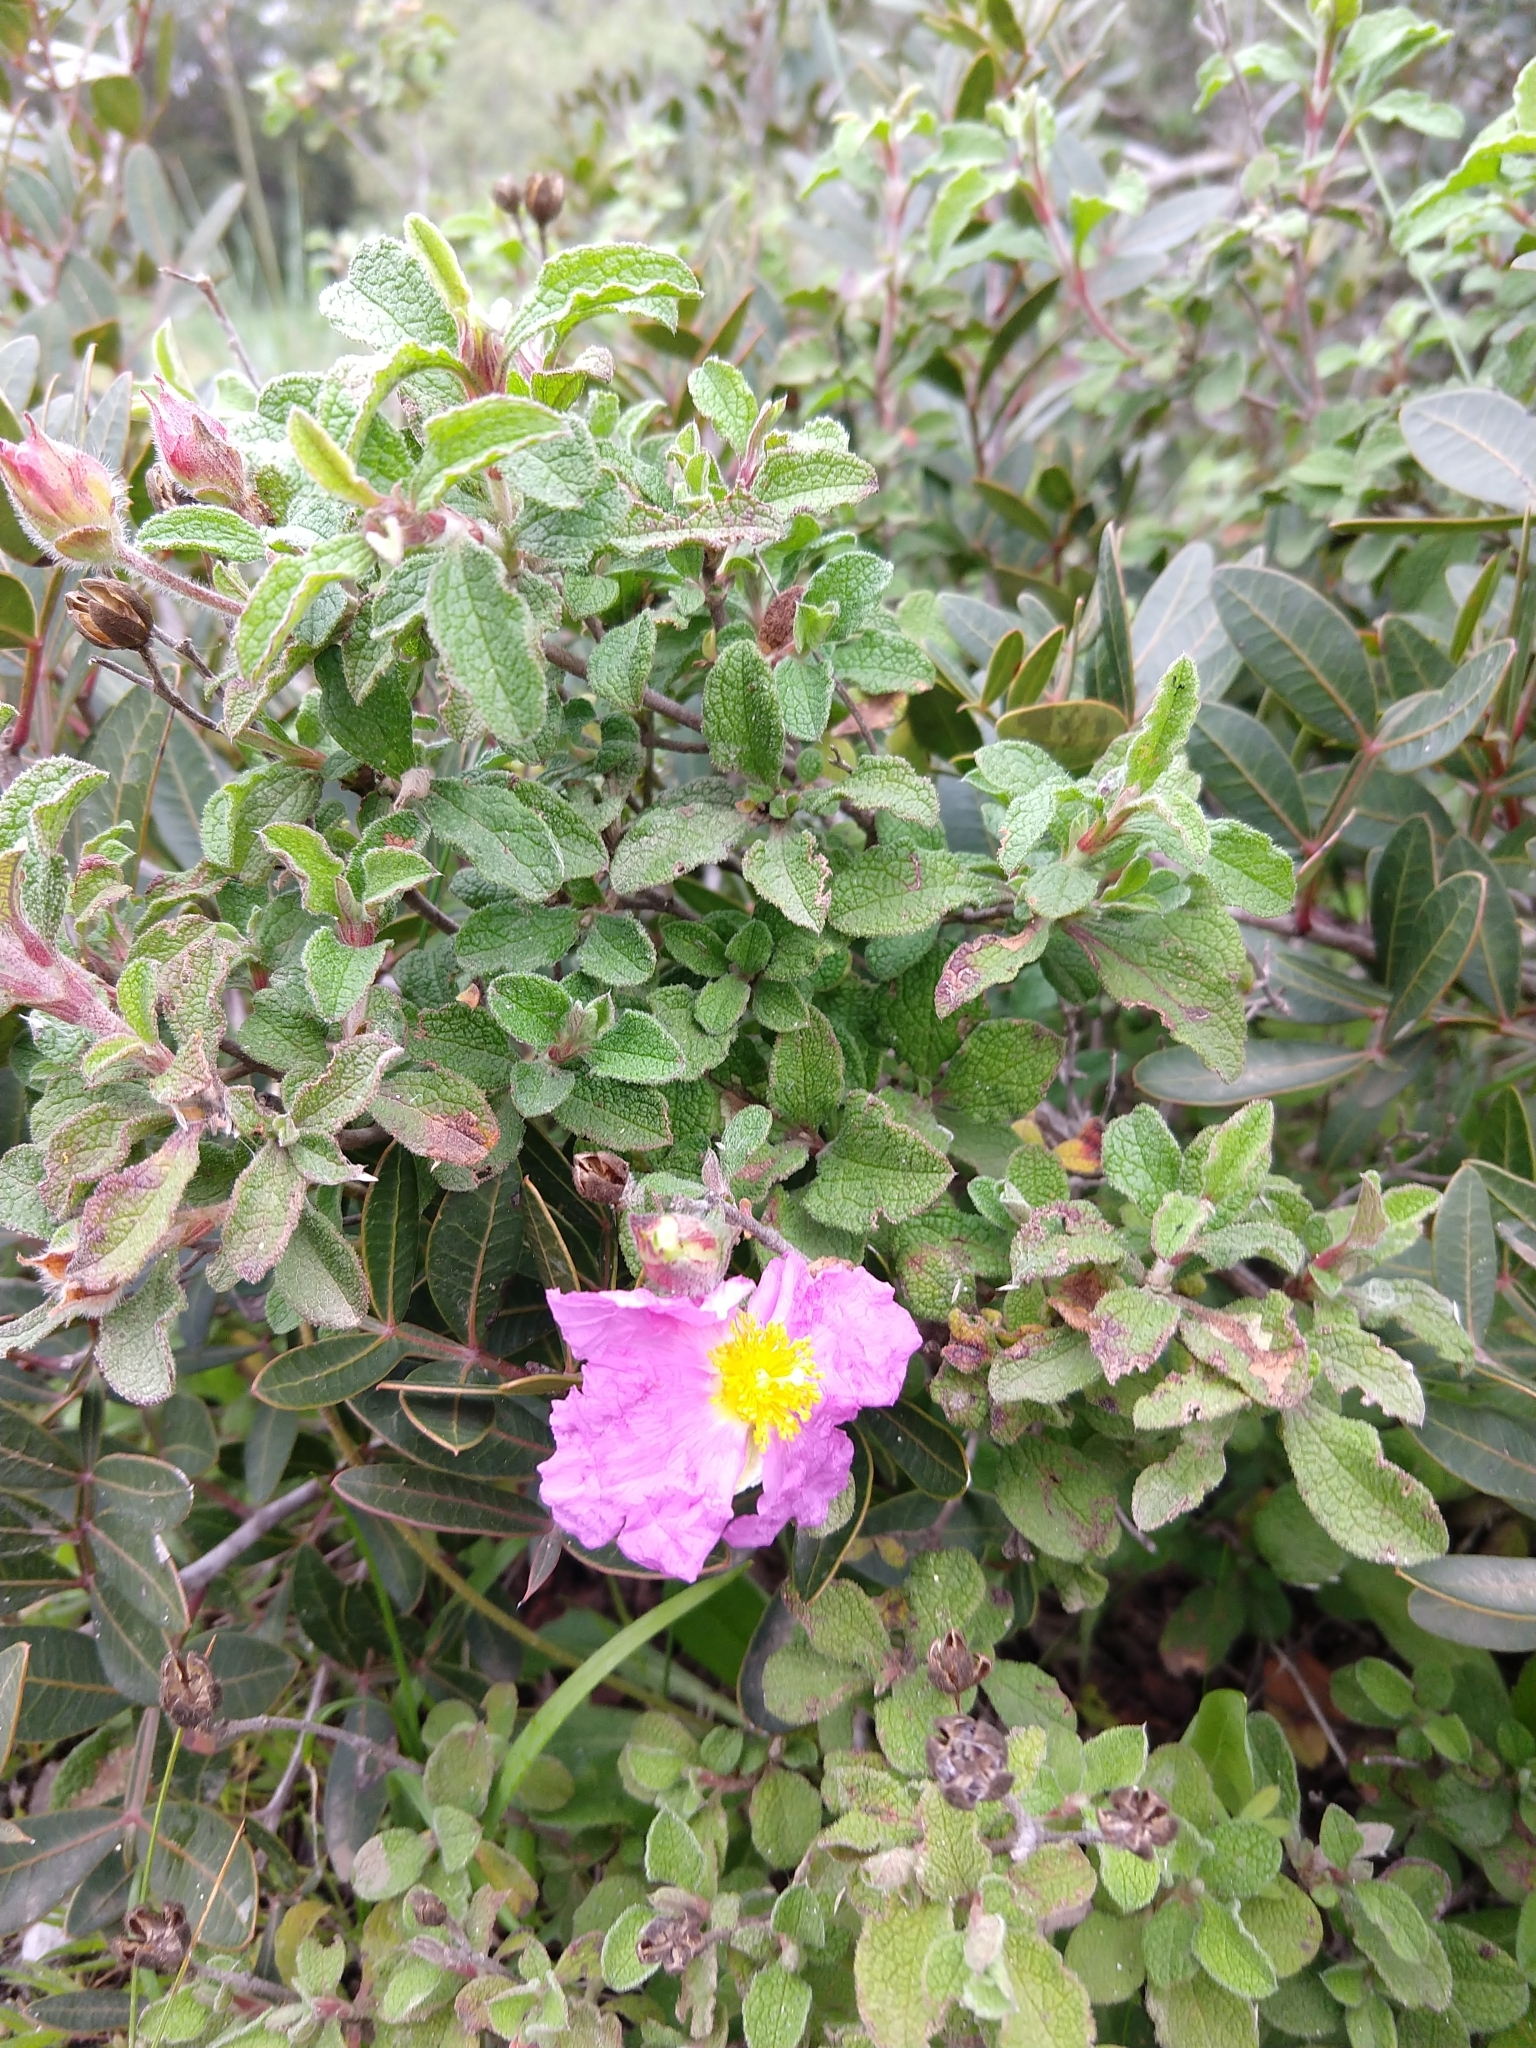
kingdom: Plantae
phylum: Tracheophyta
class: Magnoliopsida
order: Malvales
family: Cistaceae
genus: Cistus
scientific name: Cistus creticus
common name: Cretan rockrose
